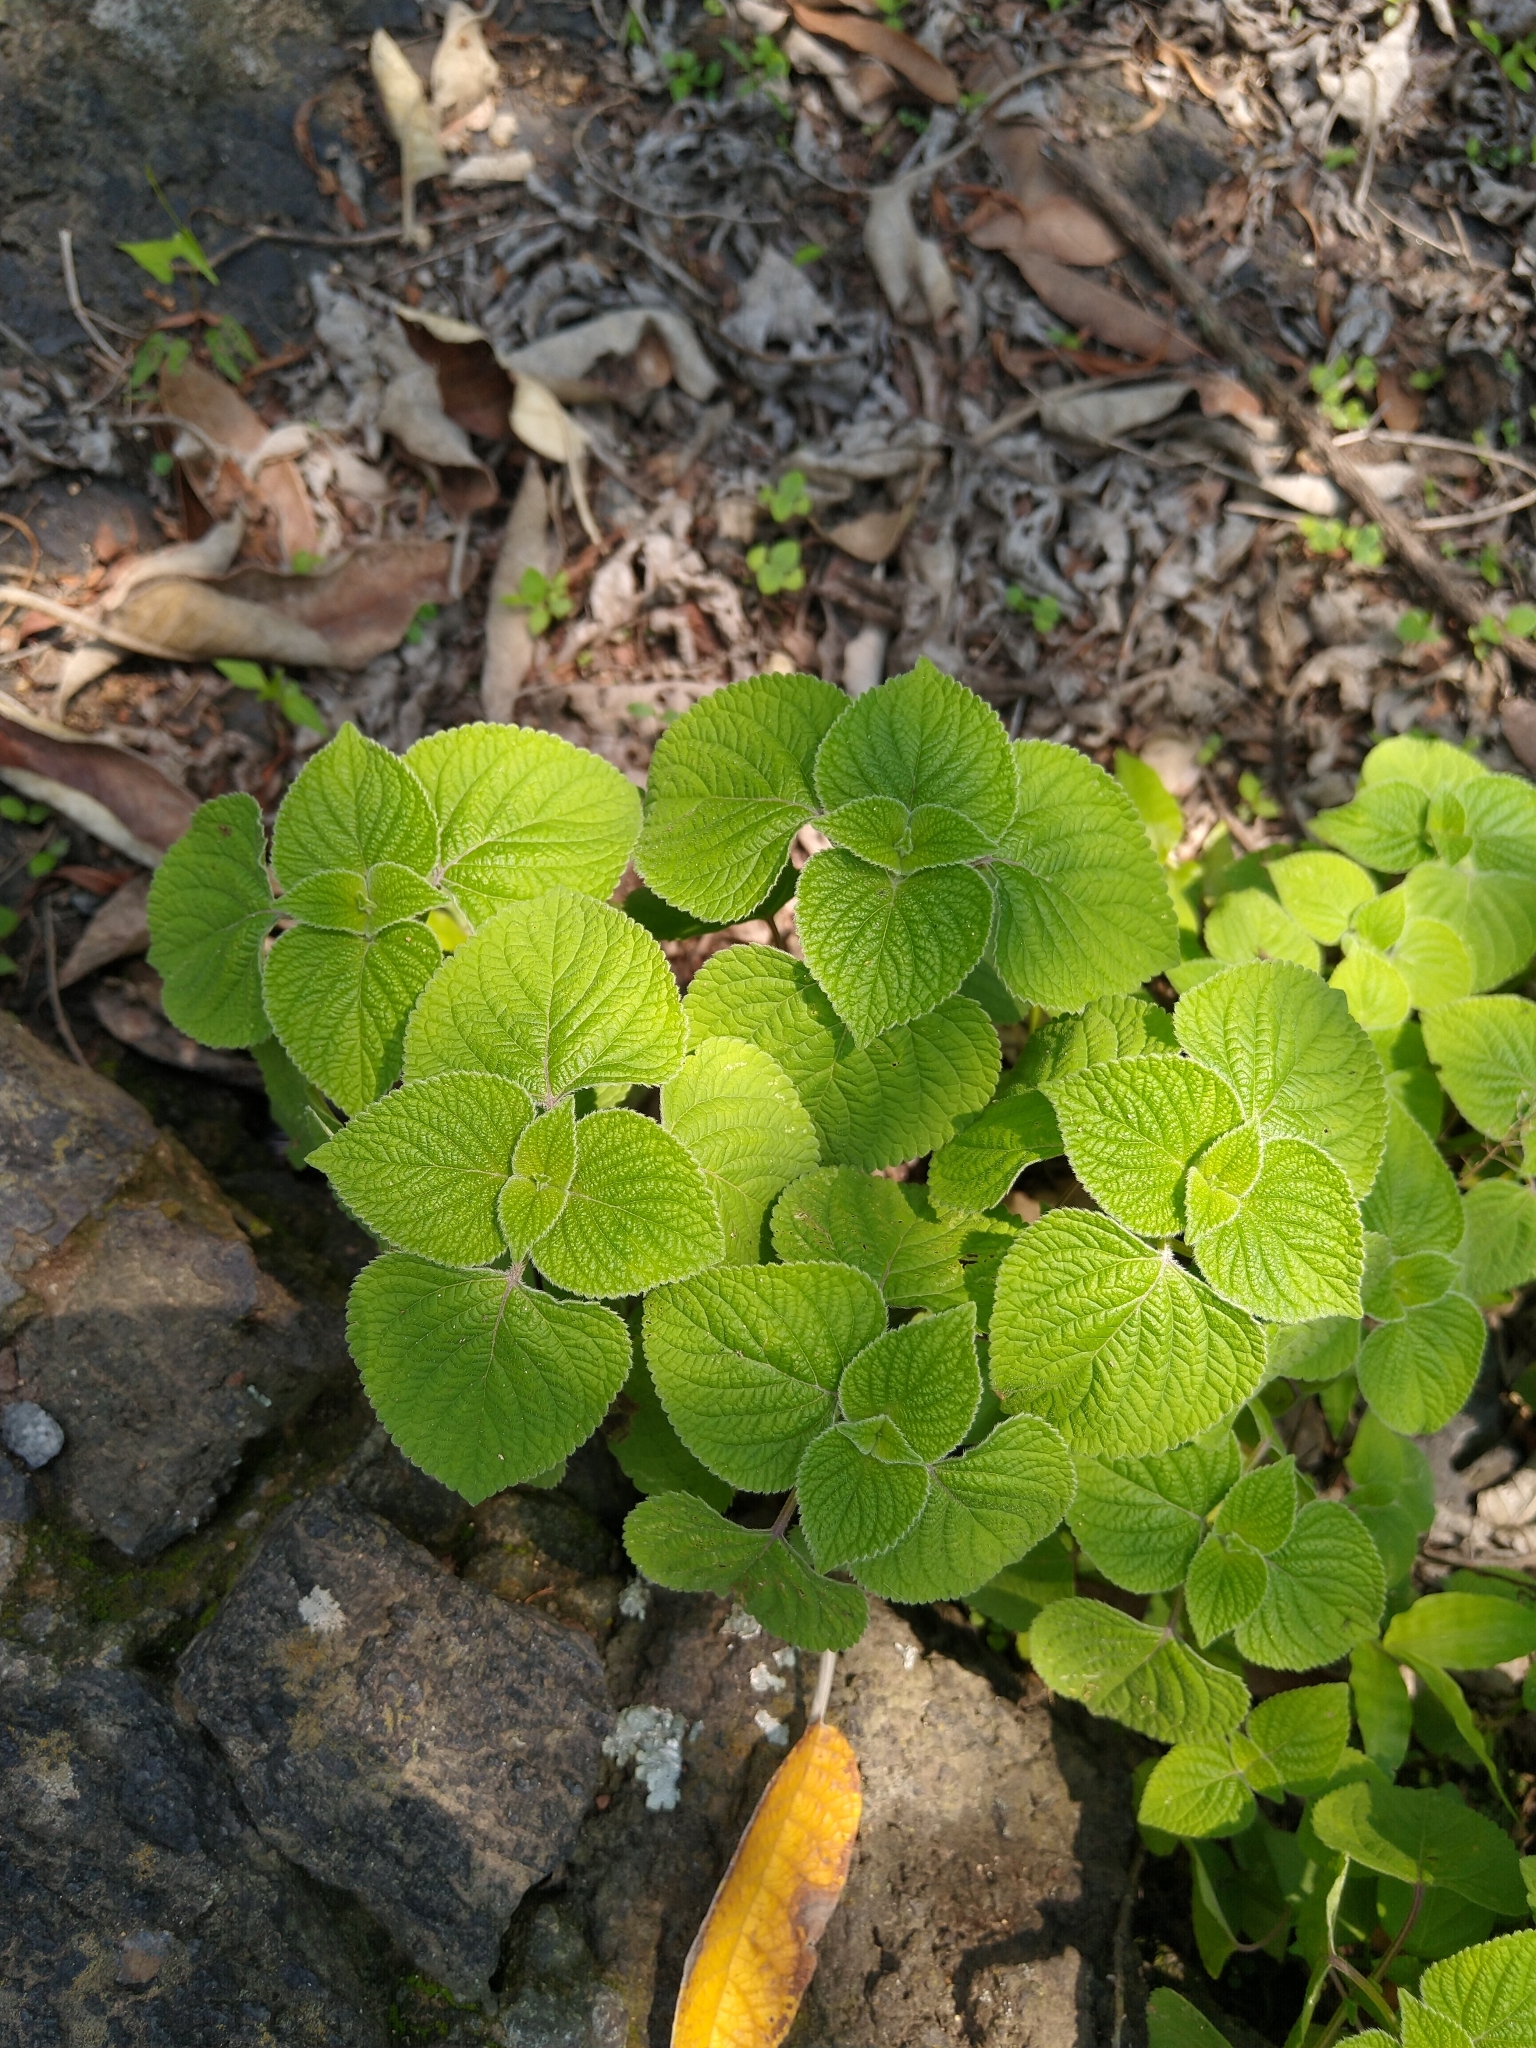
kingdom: Plantae
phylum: Tracheophyta
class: Magnoliopsida
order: Lamiales
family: Lamiaceae
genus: Salvia
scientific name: Salvia tiliifolia
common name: Lindenleaf sage
